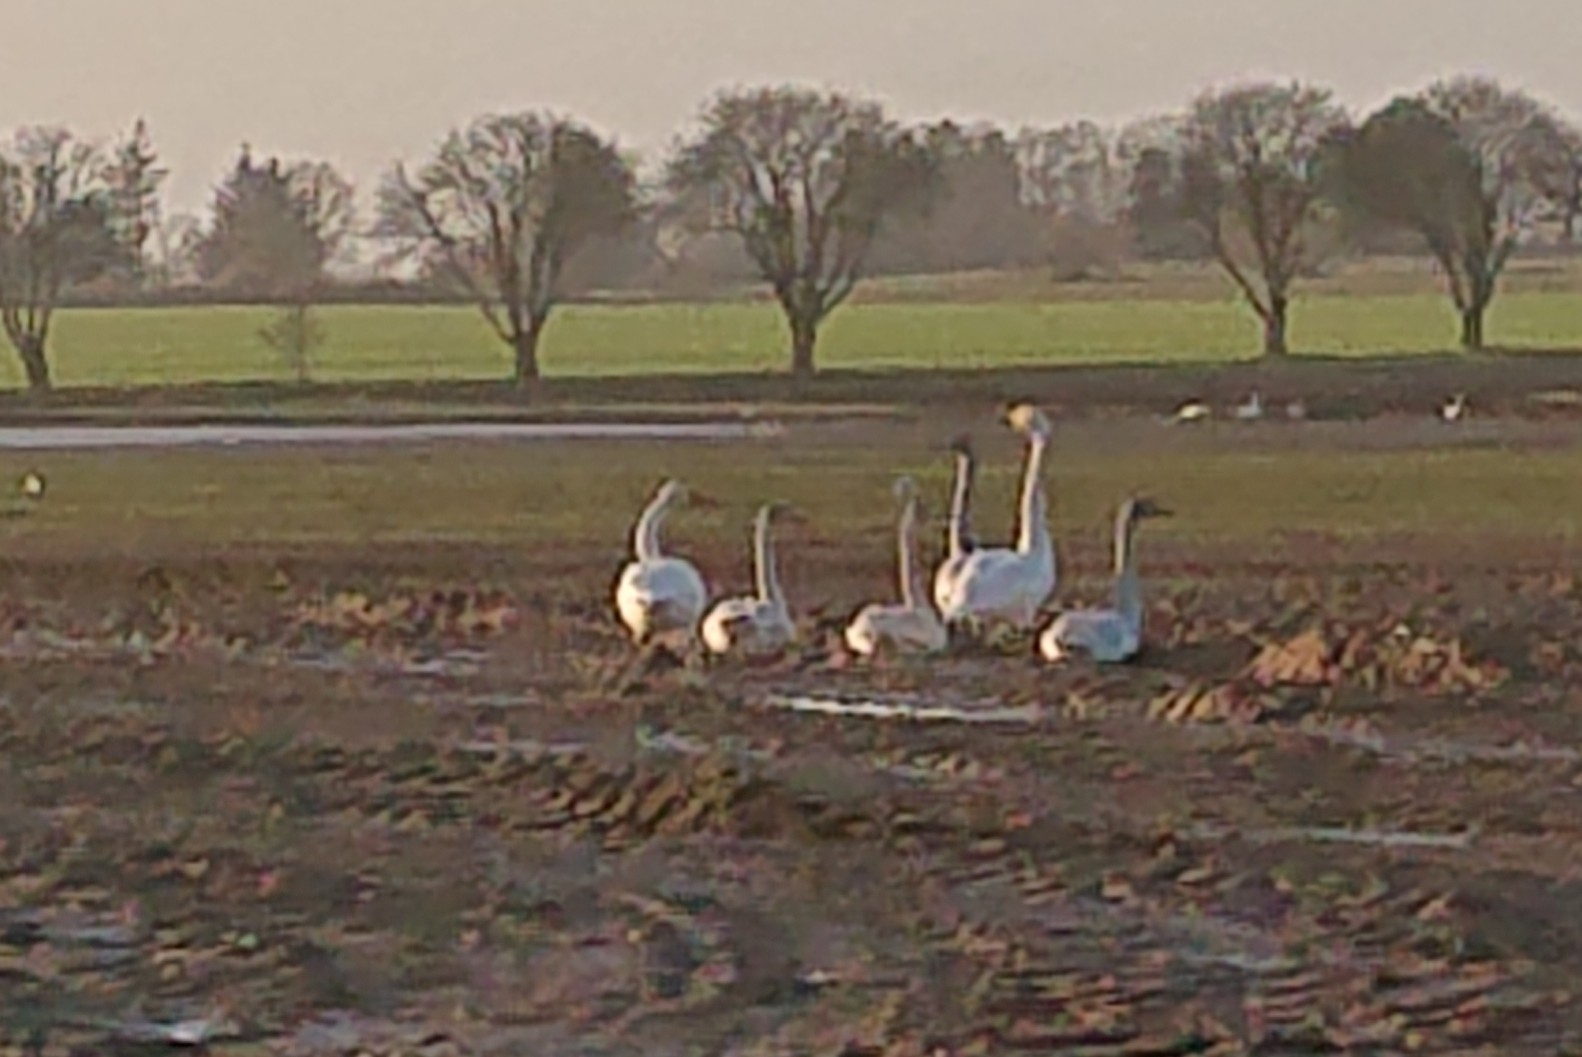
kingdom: Animalia
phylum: Chordata
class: Aves
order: Anseriformes
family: Anatidae
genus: Cygnus
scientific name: Cygnus cygnus
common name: Whooper swan
